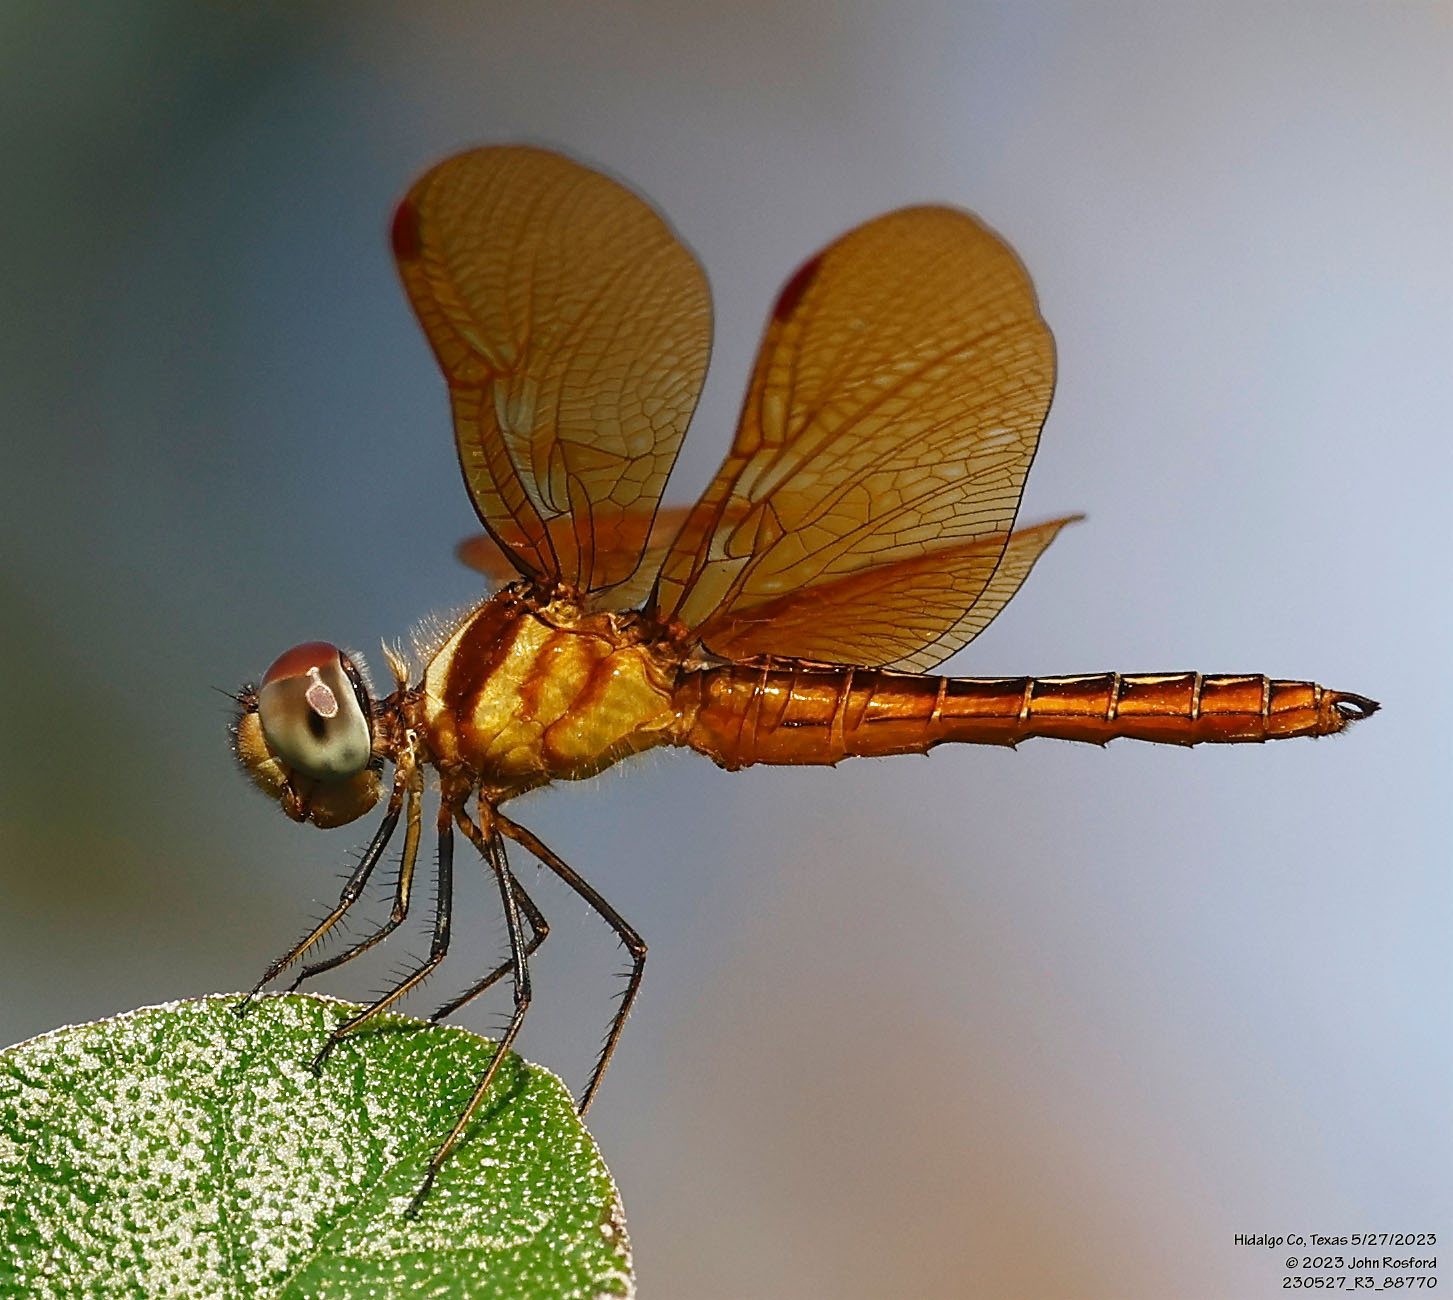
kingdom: Animalia
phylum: Arthropoda
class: Insecta
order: Odonata
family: Libellulidae
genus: Perithemis
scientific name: Perithemis domitia
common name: Slough amberwing
